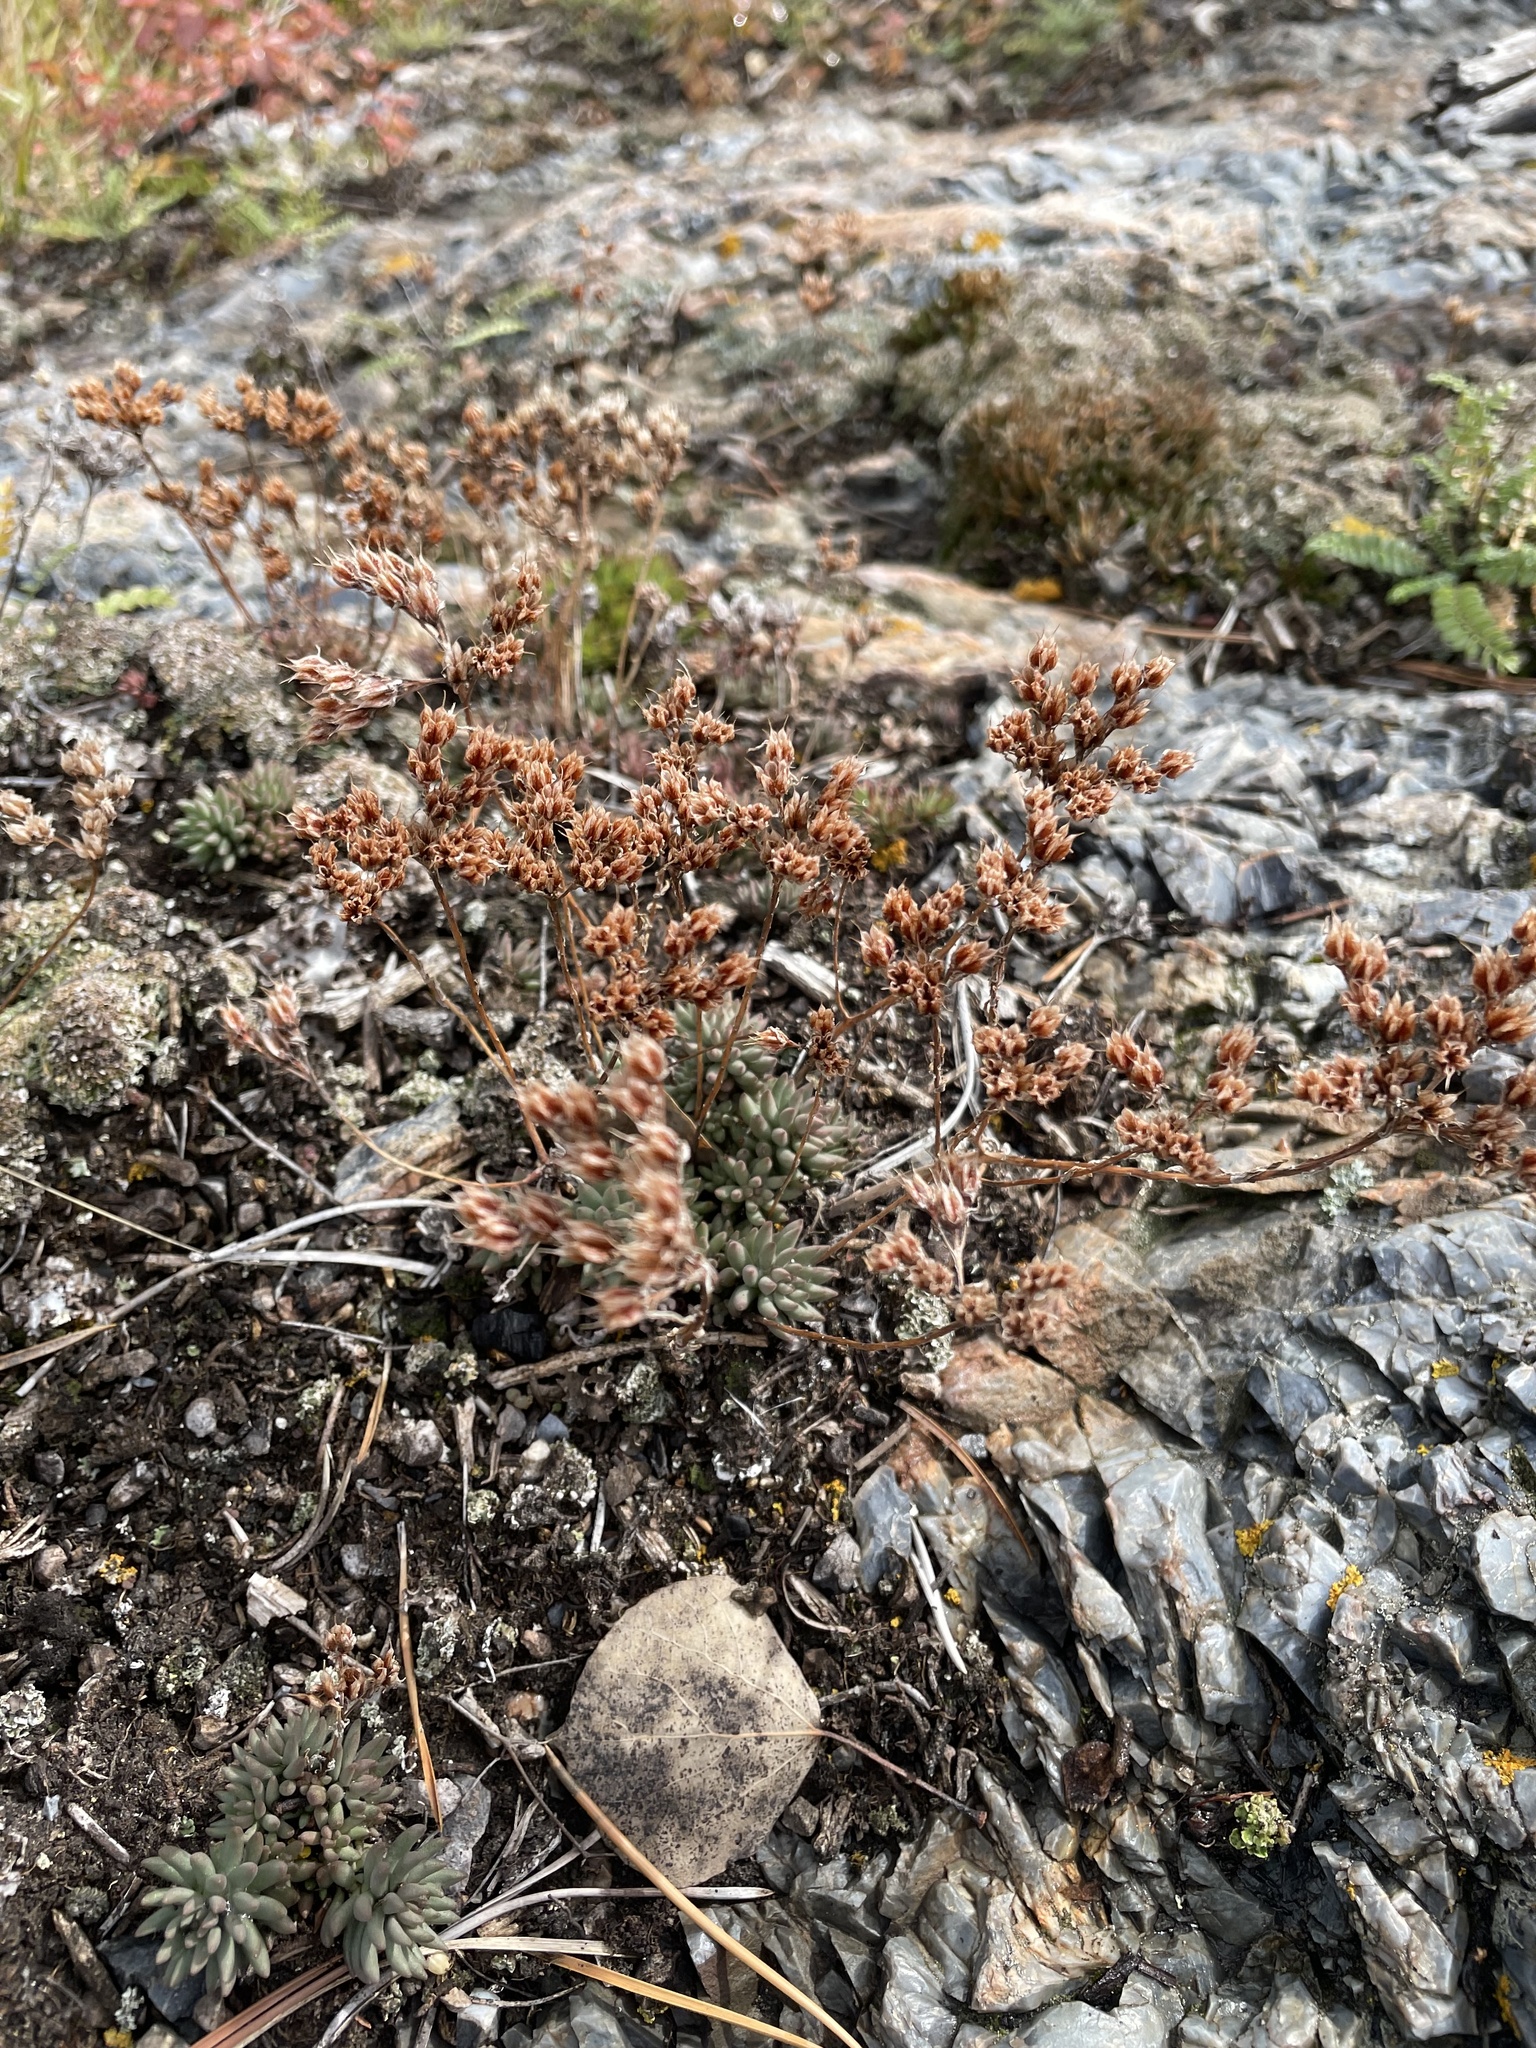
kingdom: Plantae
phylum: Tracheophyta
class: Magnoliopsida
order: Saxifragales
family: Crassulaceae
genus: Sedum
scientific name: Sedum lanceolatum
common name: Common stonecrop
